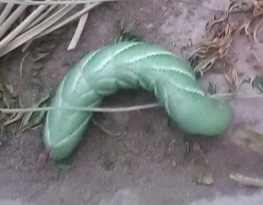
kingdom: Animalia
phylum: Arthropoda
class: Insecta
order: Lepidoptera
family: Sphingidae
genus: Manduca
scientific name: Manduca sexta
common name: Carolina sphinx
